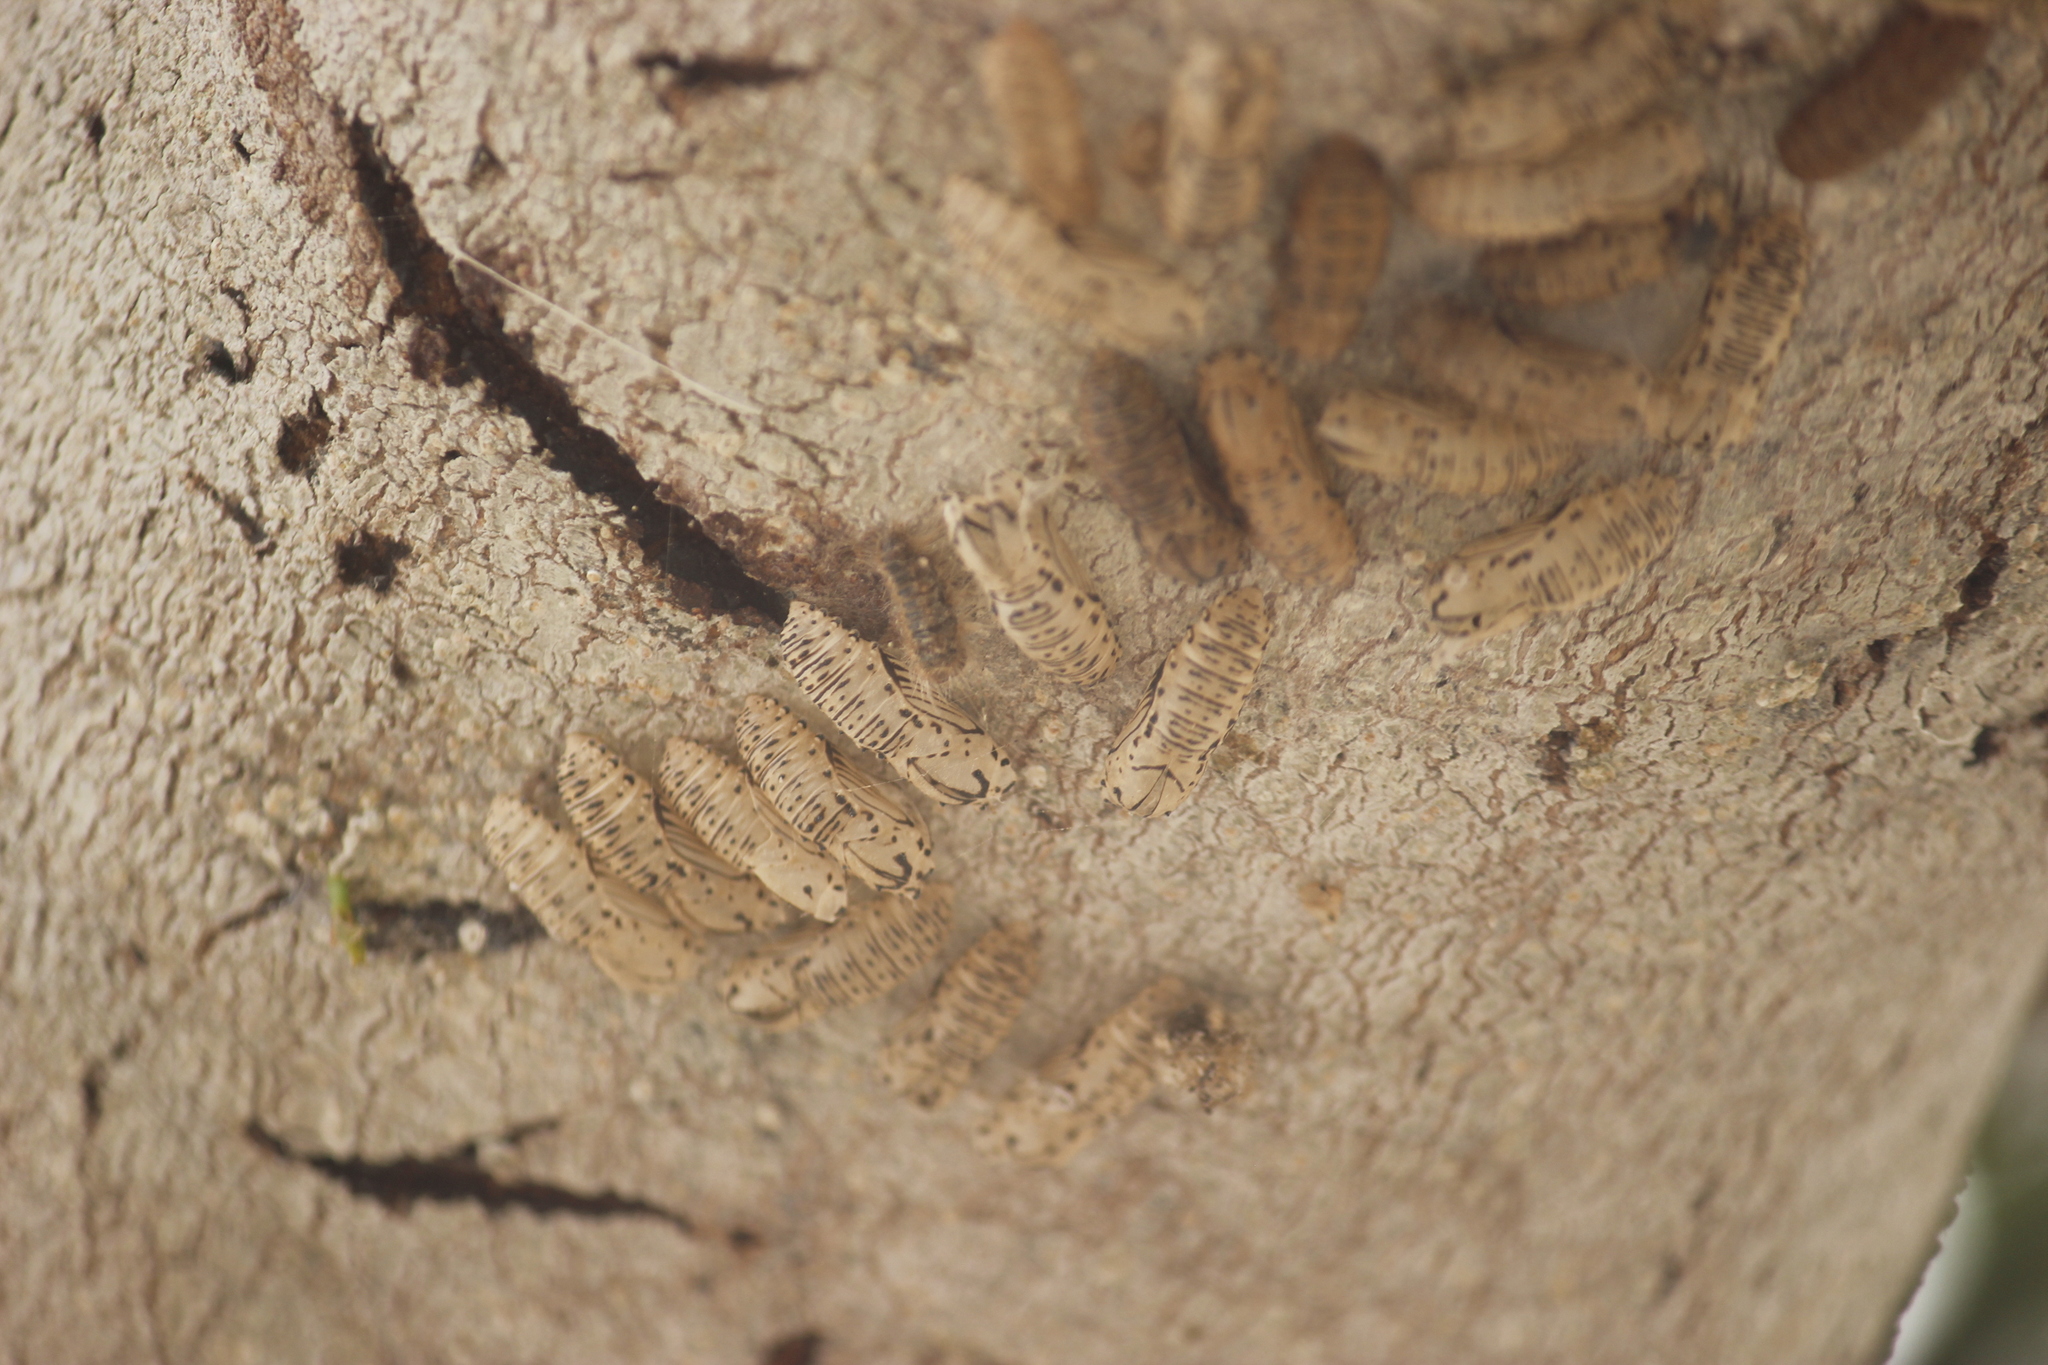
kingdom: Animalia
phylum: Arthropoda
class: Insecta
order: Lepidoptera
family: Lycaenidae
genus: Melanis
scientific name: Melanis
